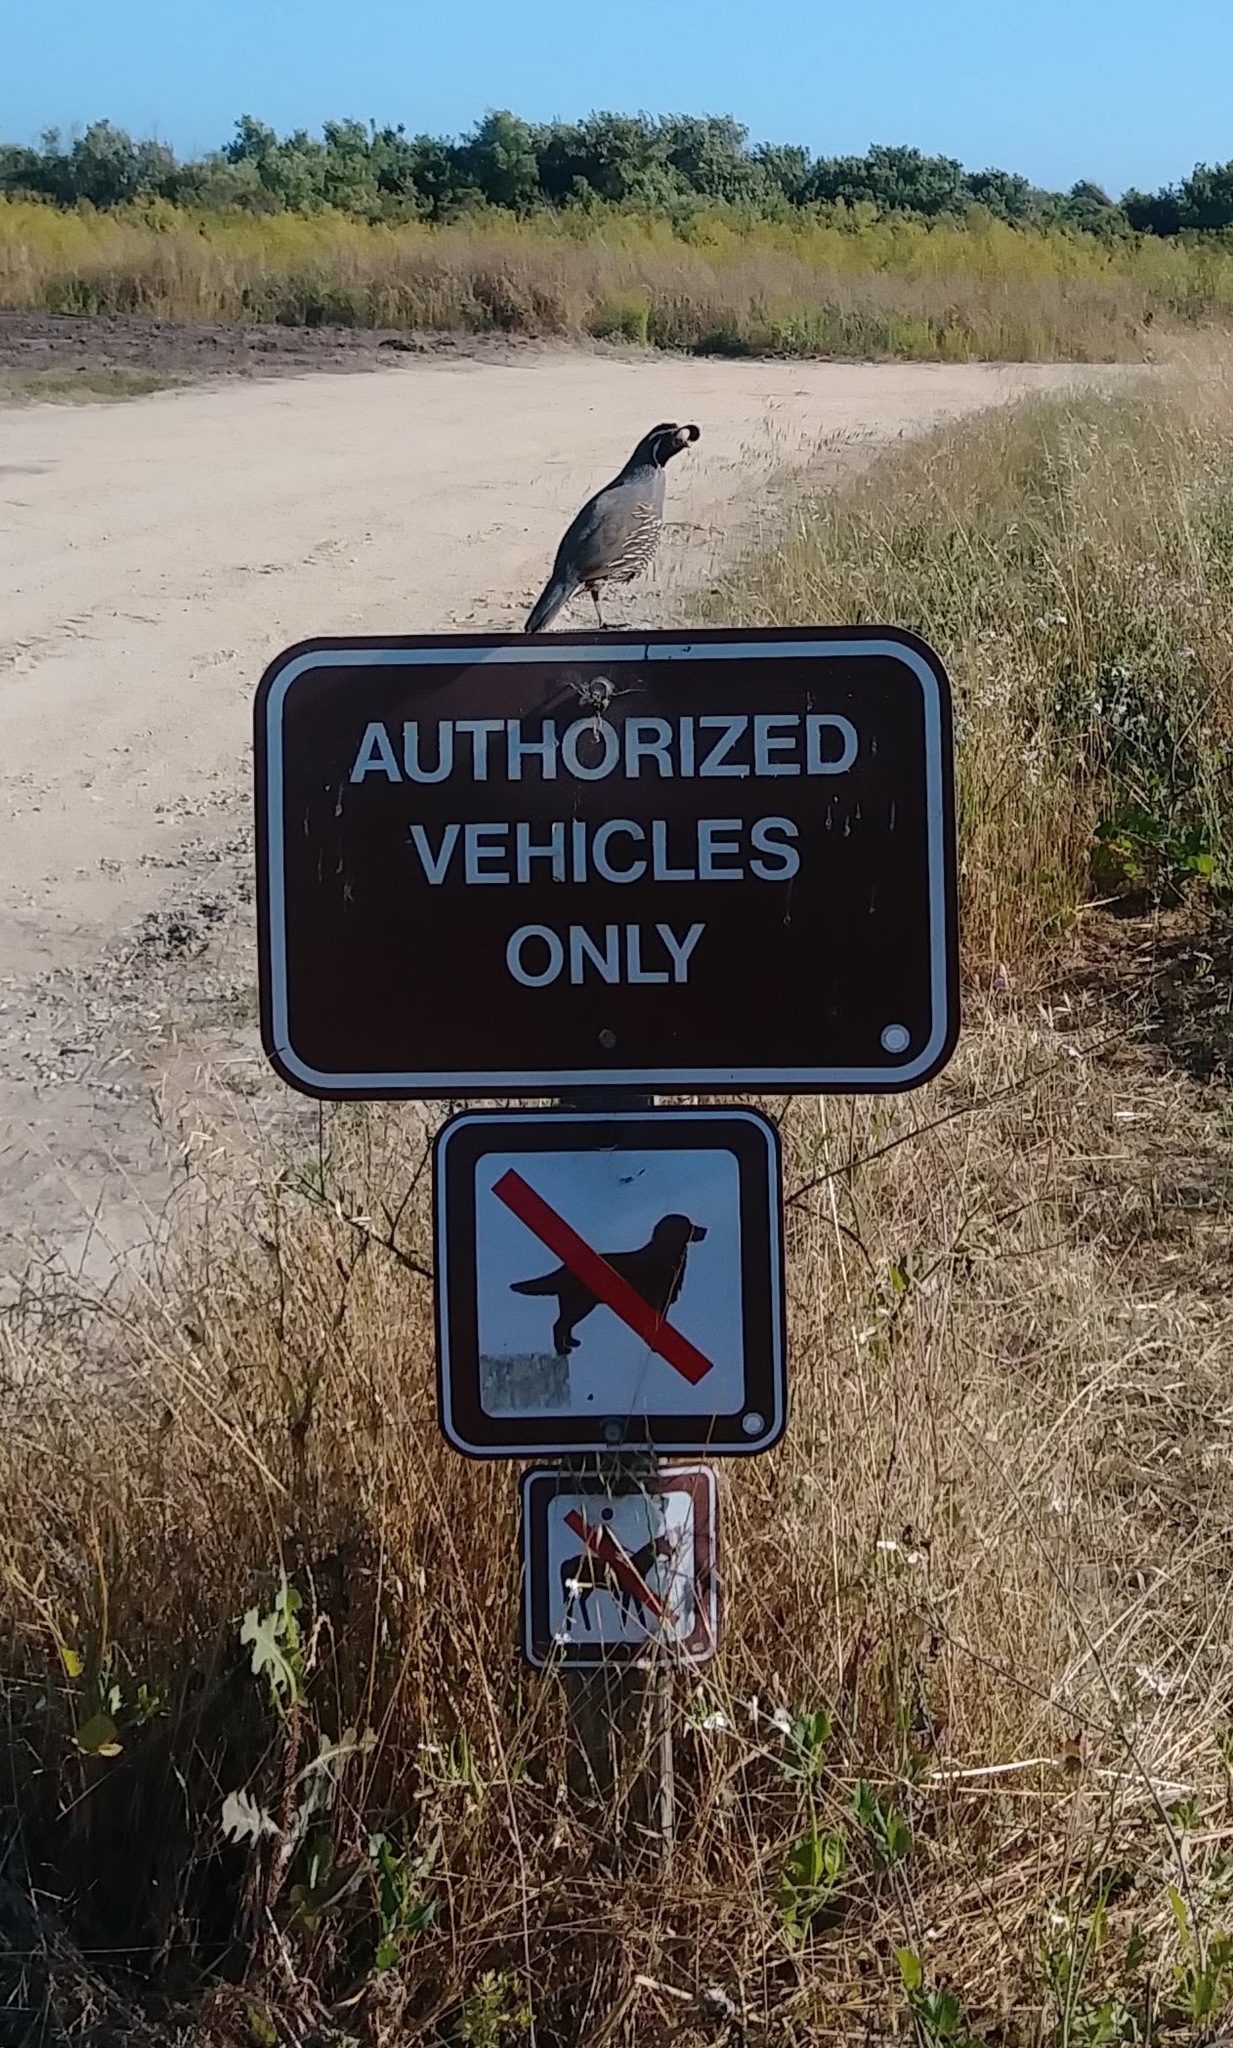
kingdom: Animalia
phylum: Chordata
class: Aves
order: Galliformes
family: Odontophoridae
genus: Callipepla
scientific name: Callipepla californica
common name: California quail
